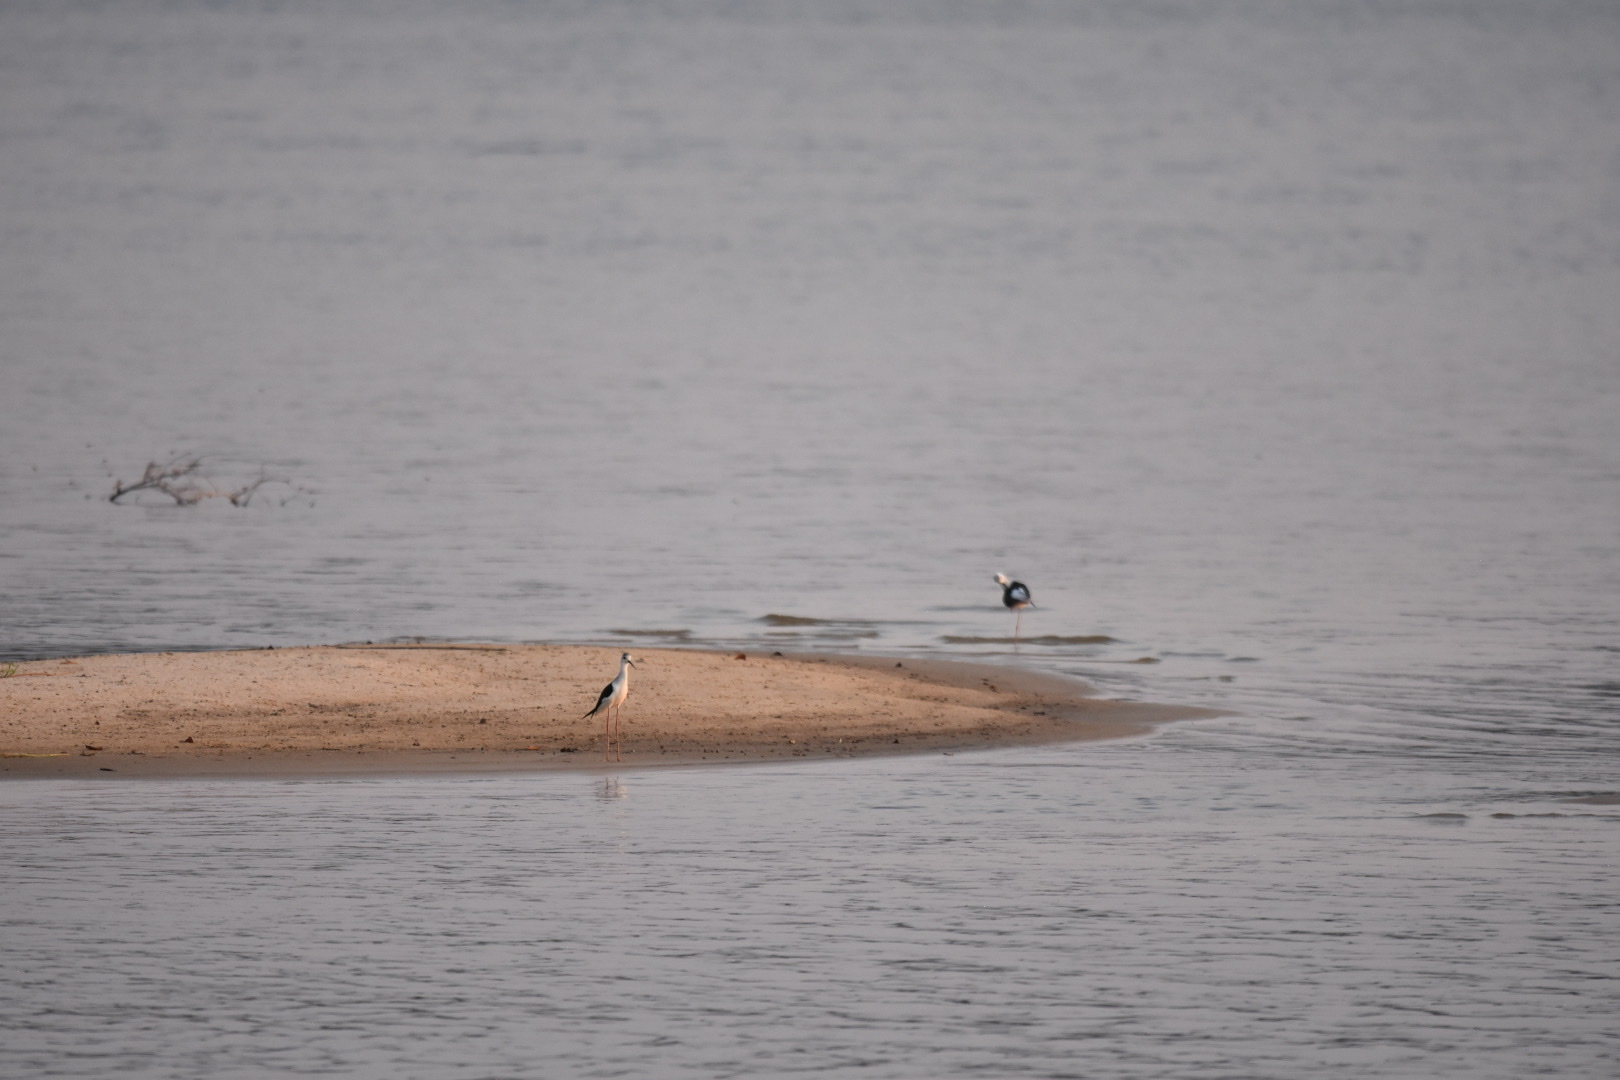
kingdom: Animalia
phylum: Chordata
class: Aves
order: Charadriiformes
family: Recurvirostridae
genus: Himantopus
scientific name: Himantopus himantopus
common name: Black-winged stilt
